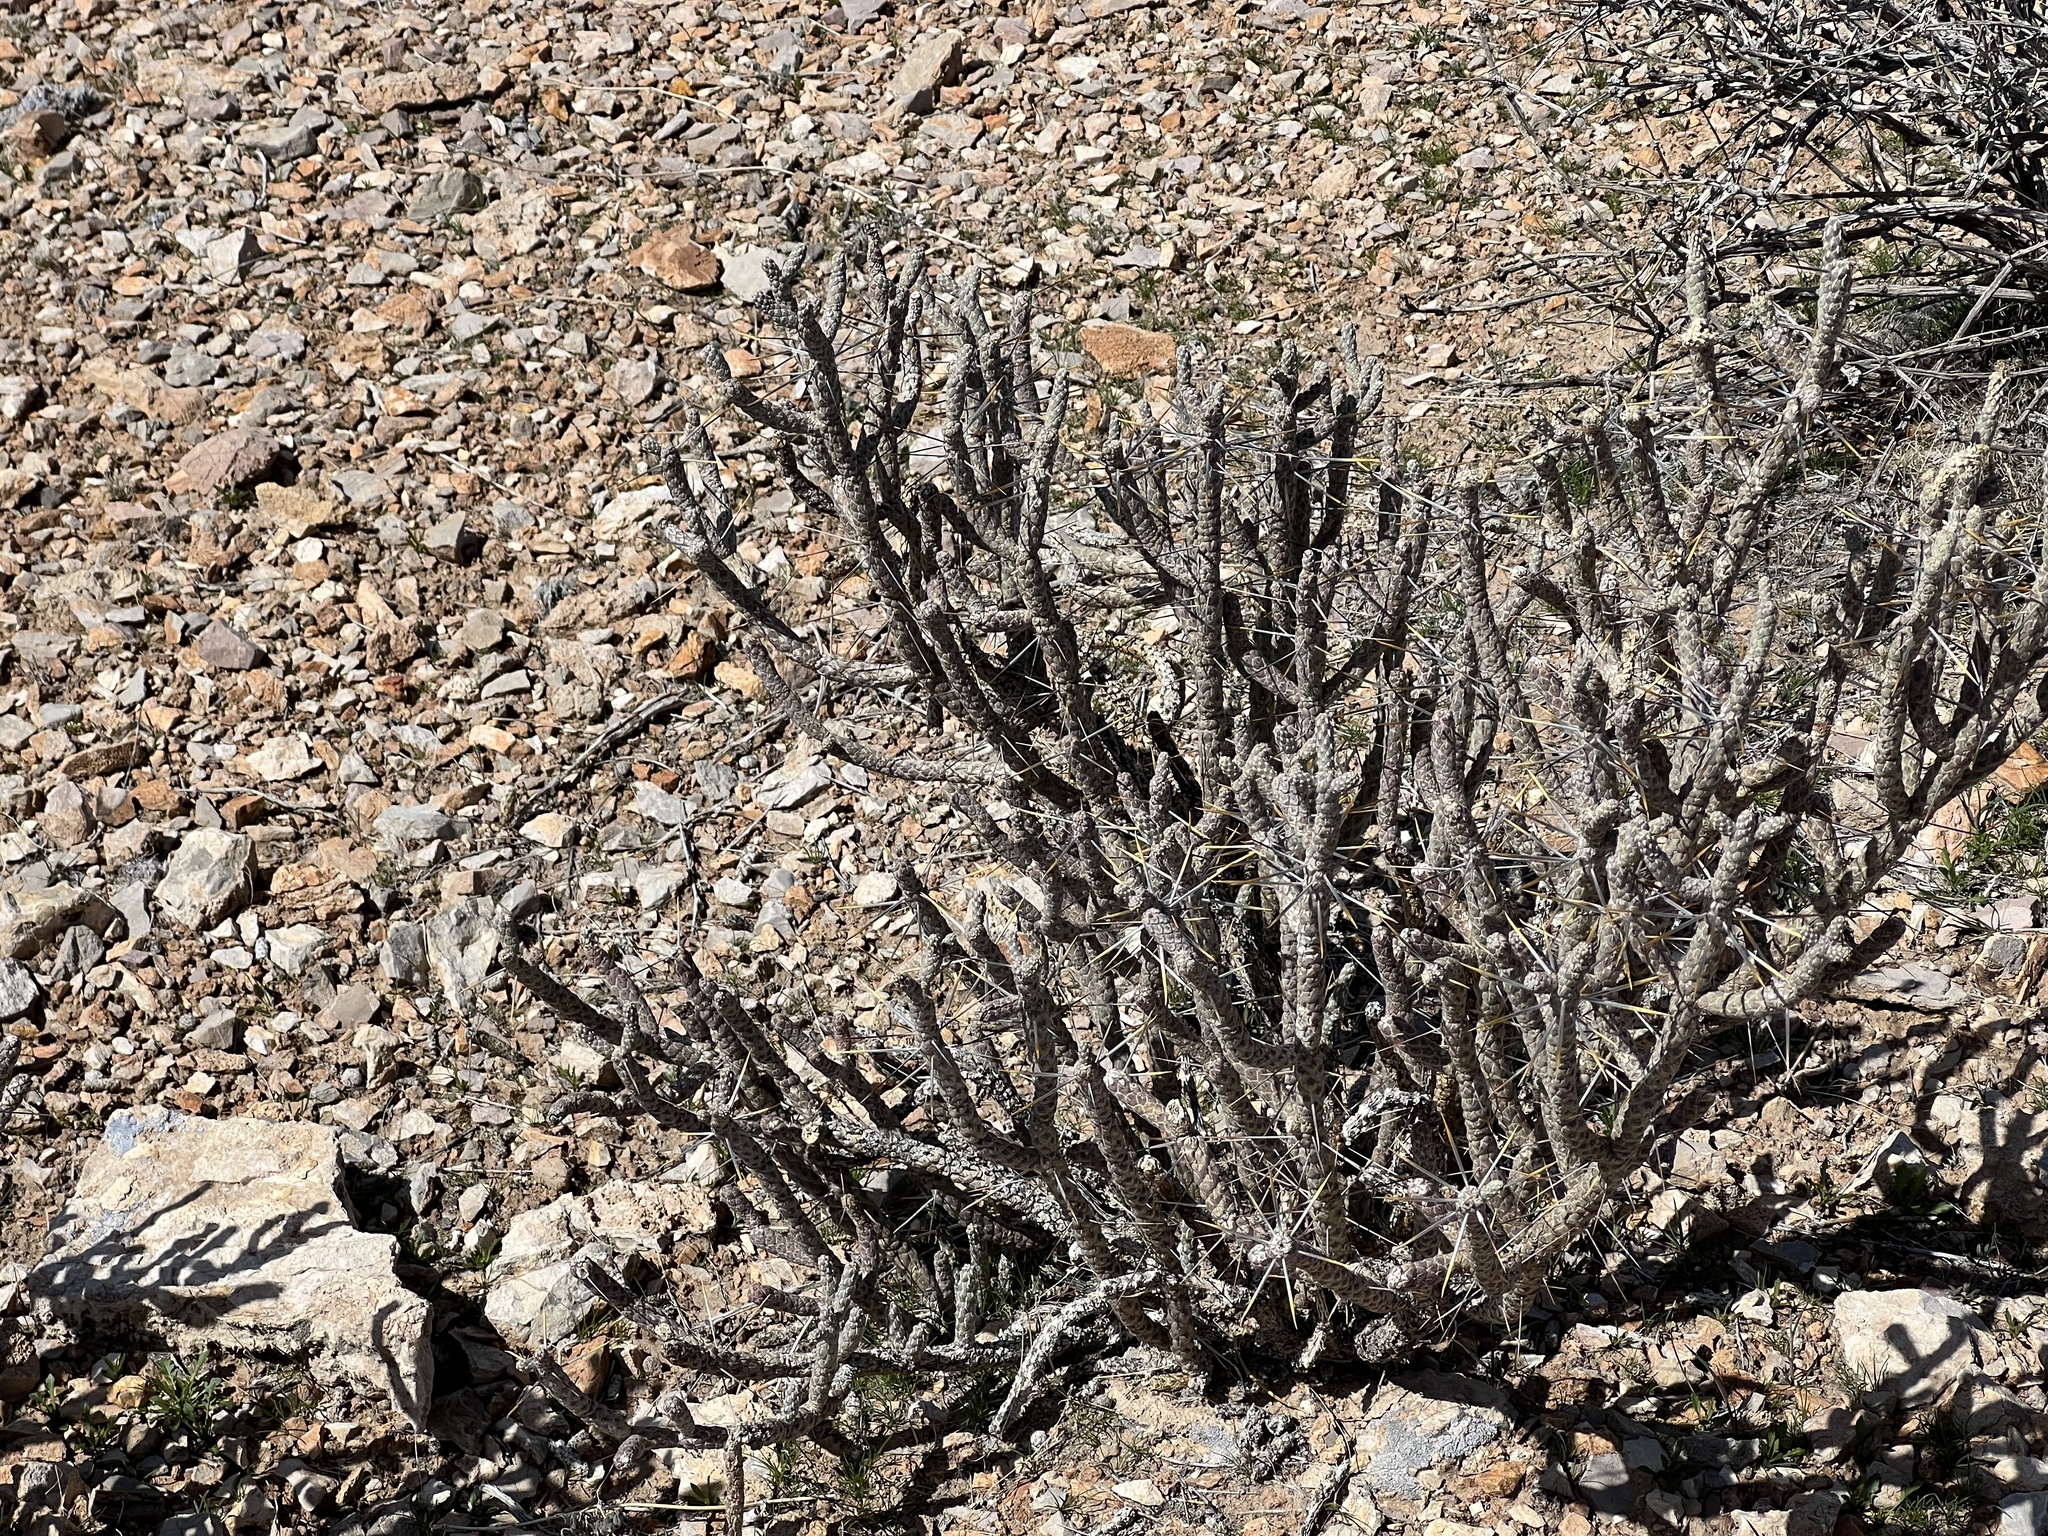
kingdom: Plantae
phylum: Tracheophyta
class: Magnoliopsida
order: Caryophyllales
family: Cactaceae
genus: Cylindropuntia
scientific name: Cylindropuntia ramosissima
